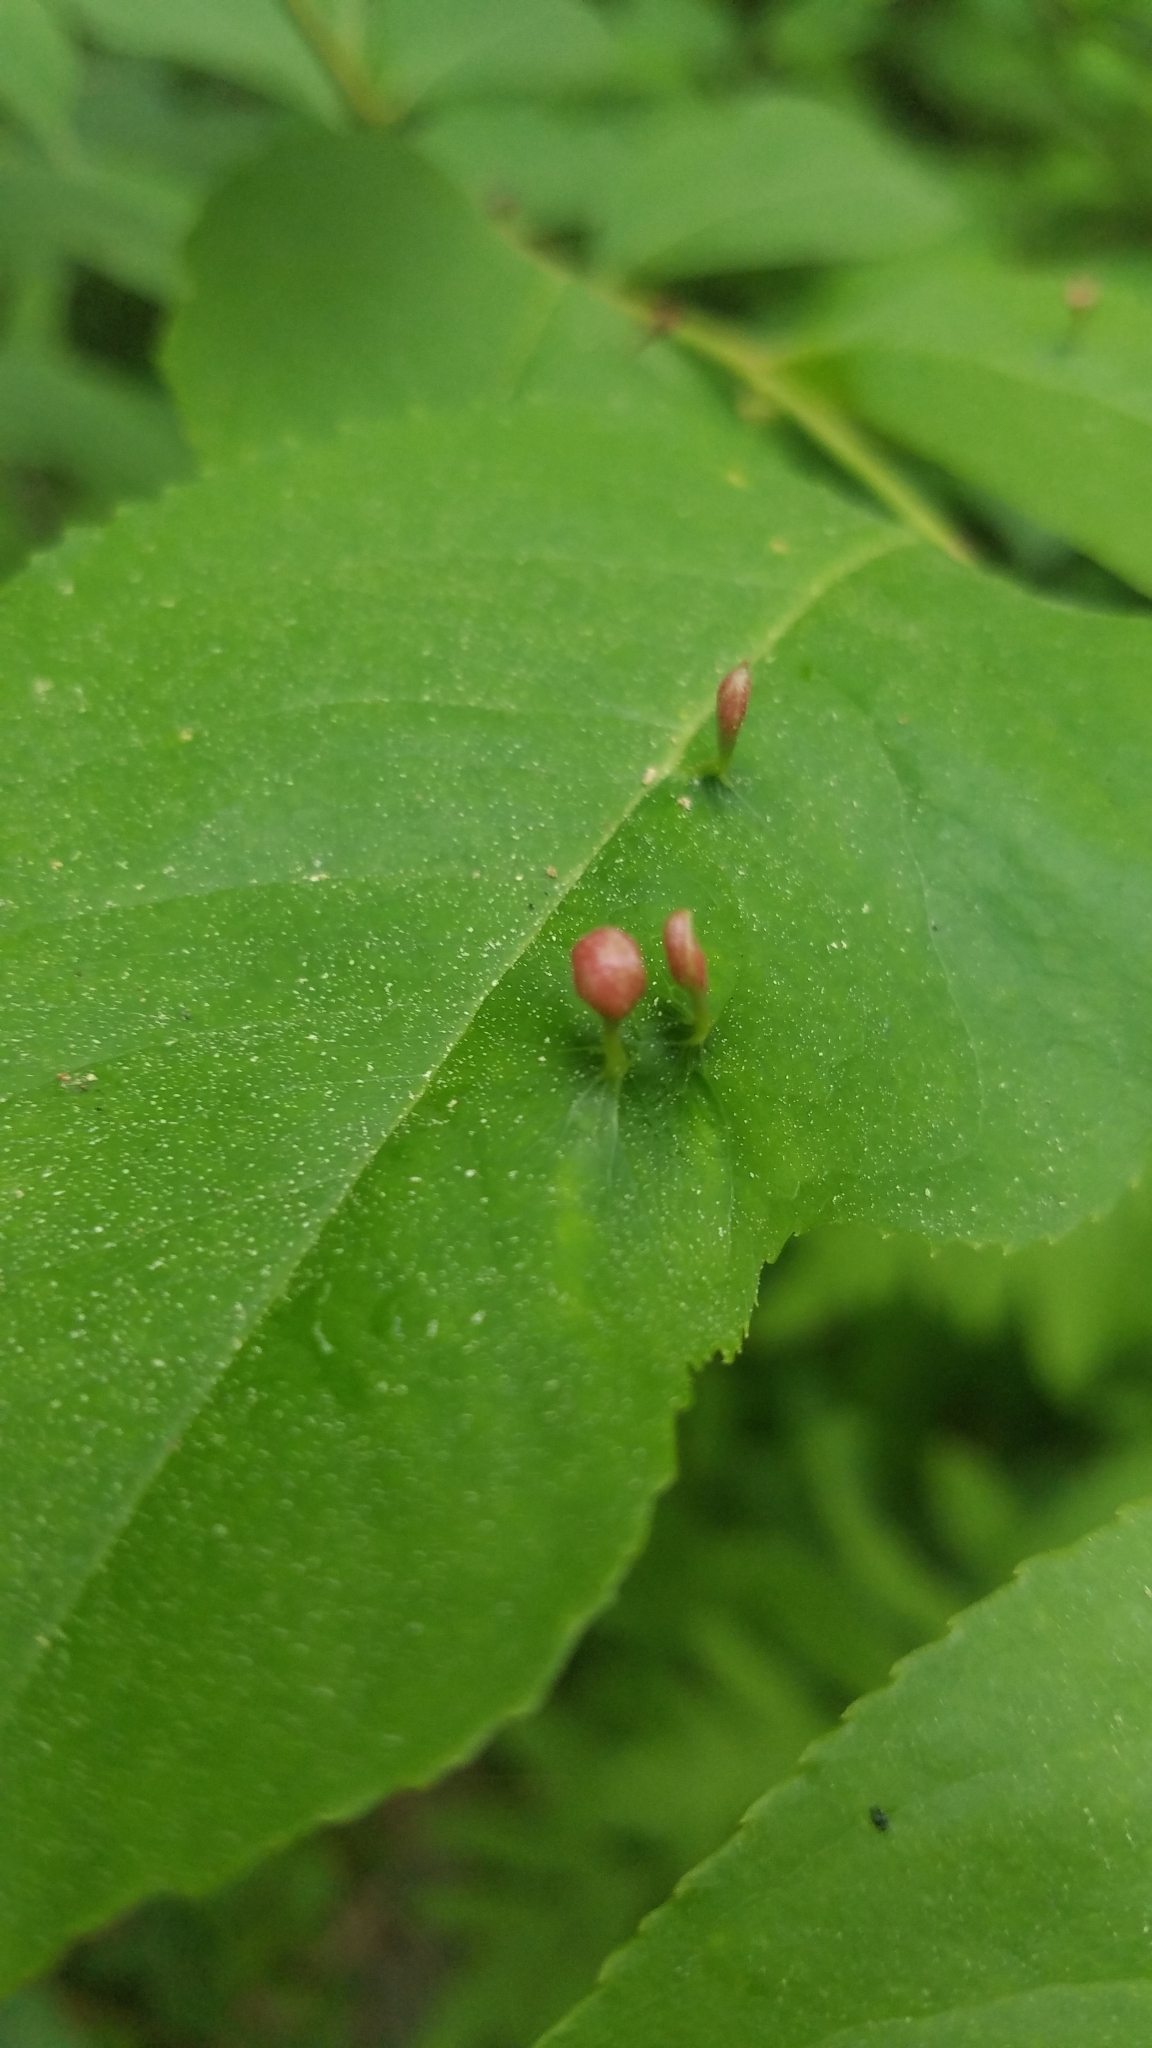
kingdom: Animalia
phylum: Arthropoda
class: Arachnida
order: Trombidiformes
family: Eriophyidae
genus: Eriophyes
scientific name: Eriophyes
